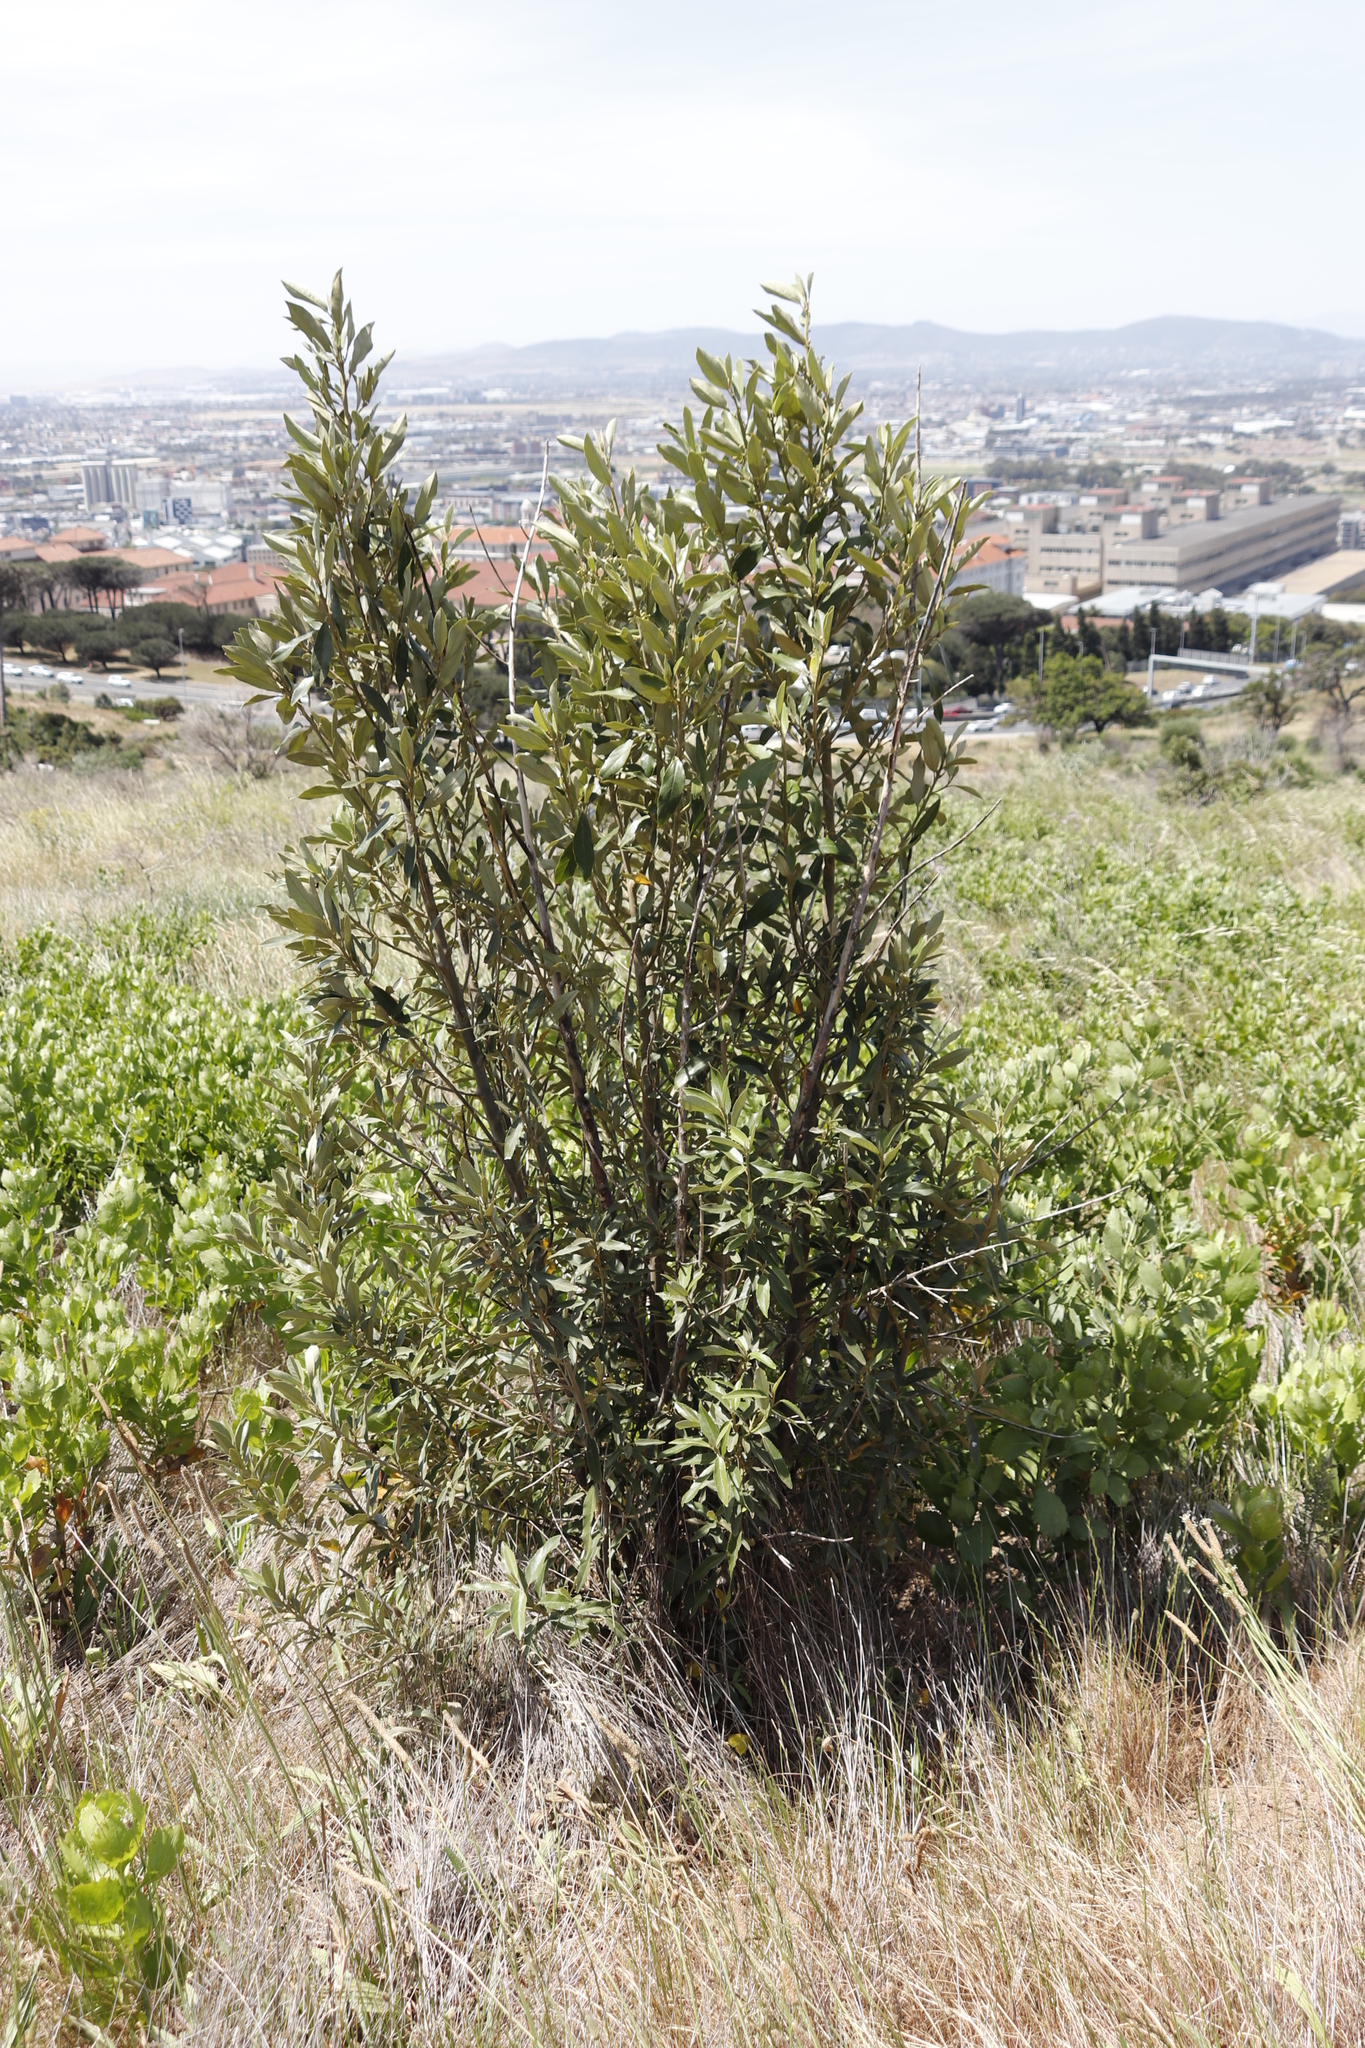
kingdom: Plantae
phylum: Tracheophyta
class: Magnoliopsida
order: Malpighiales
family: Achariaceae
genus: Kiggelaria
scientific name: Kiggelaria africana
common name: Wild peach
